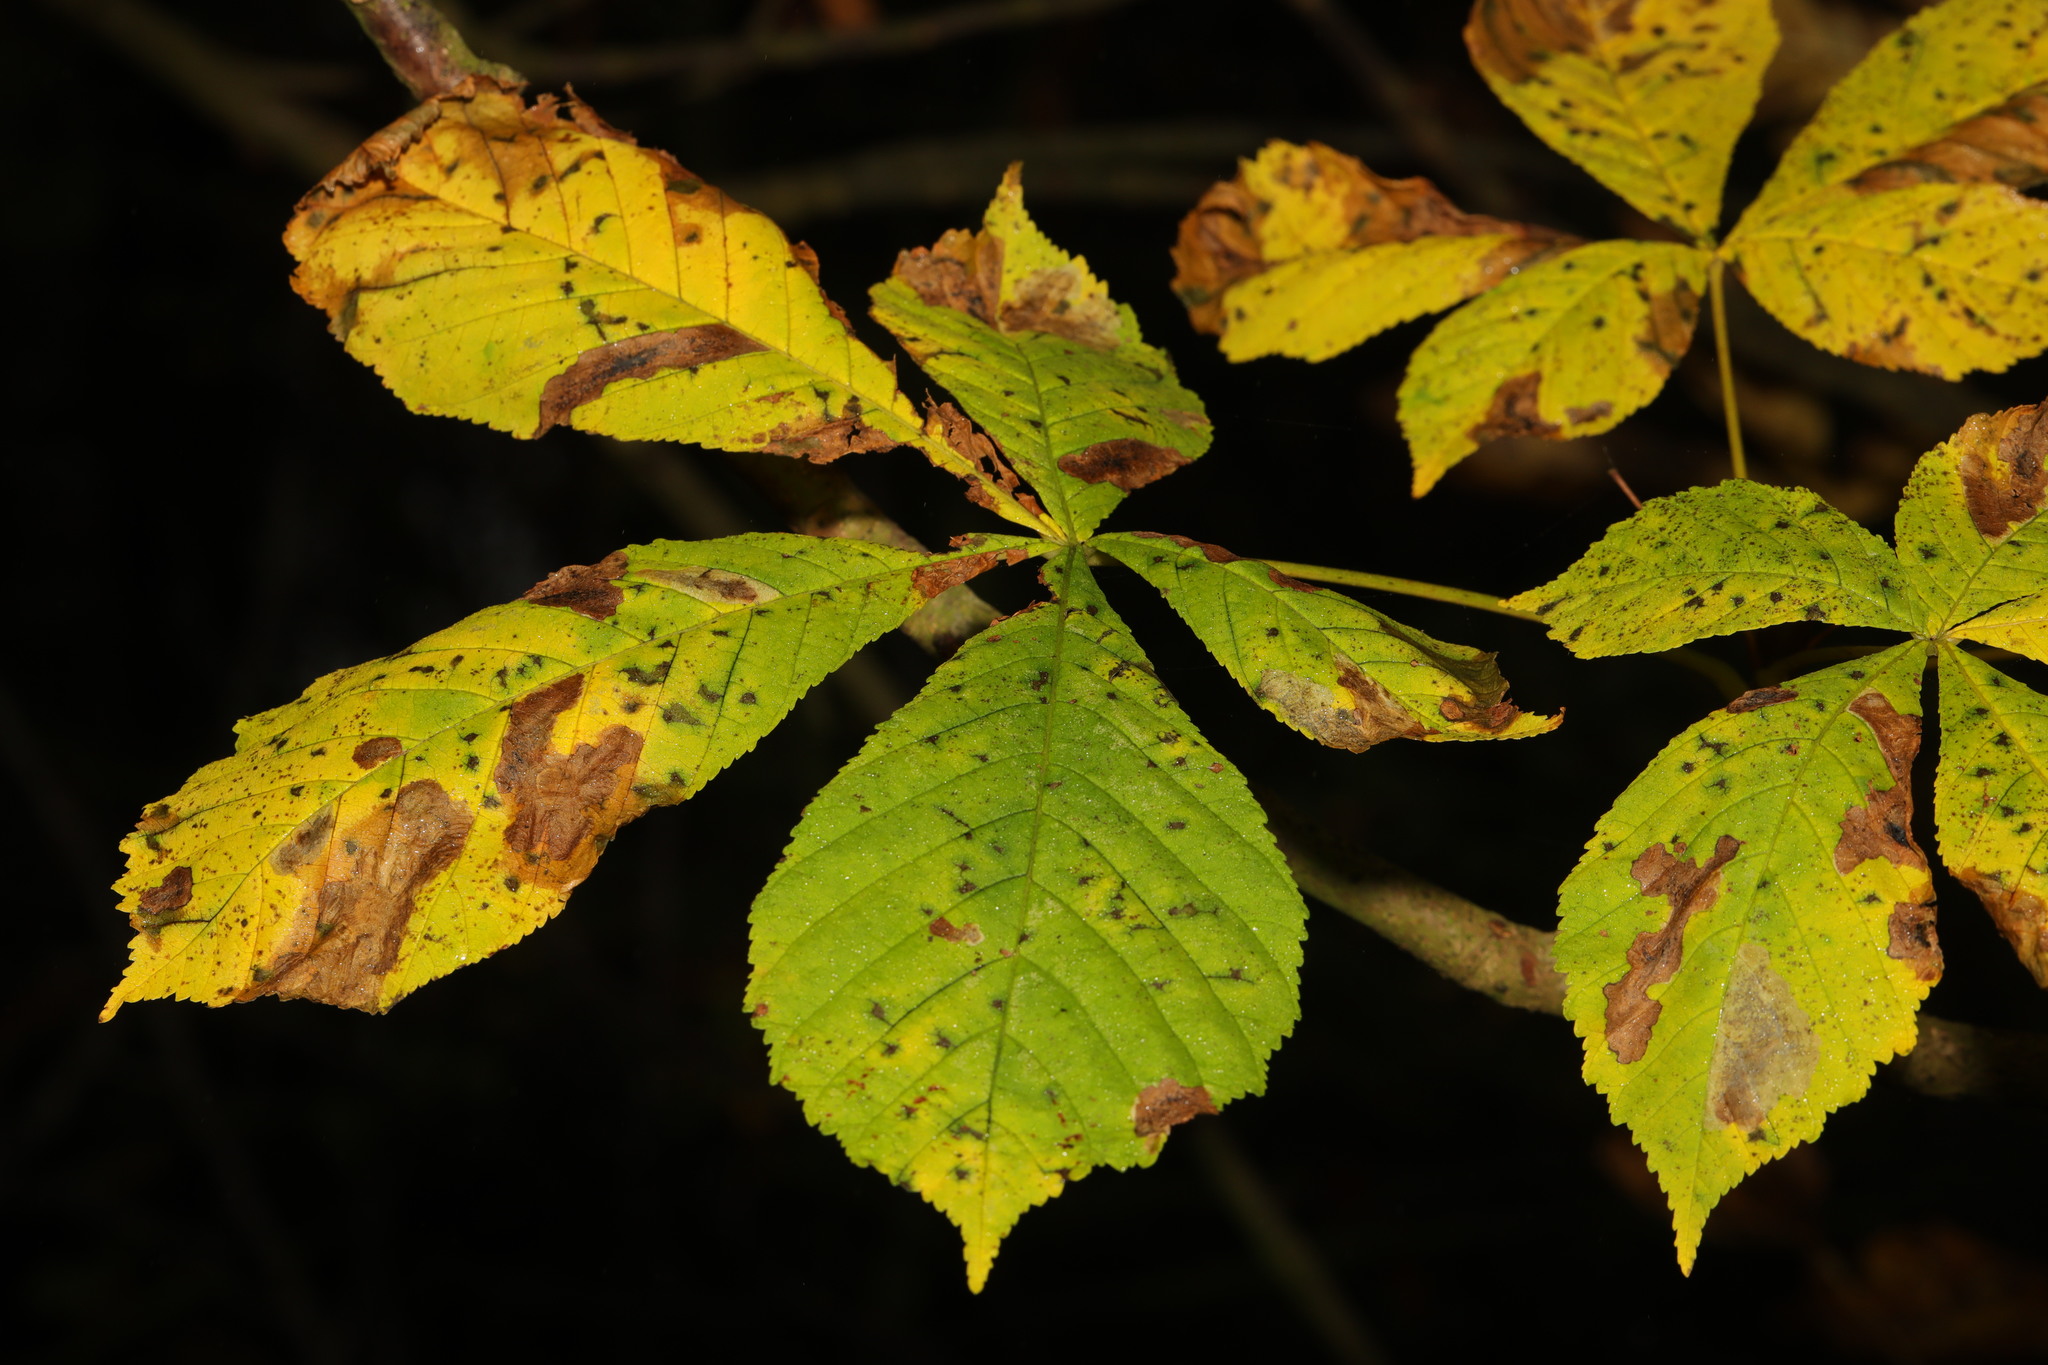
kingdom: Plantae
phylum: Tracheophyta
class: Magnoliopsida
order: Sapindales
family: Sapindaceae
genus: Aesculus
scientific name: Aesculus hippocastanum
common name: Horse-chestnut
